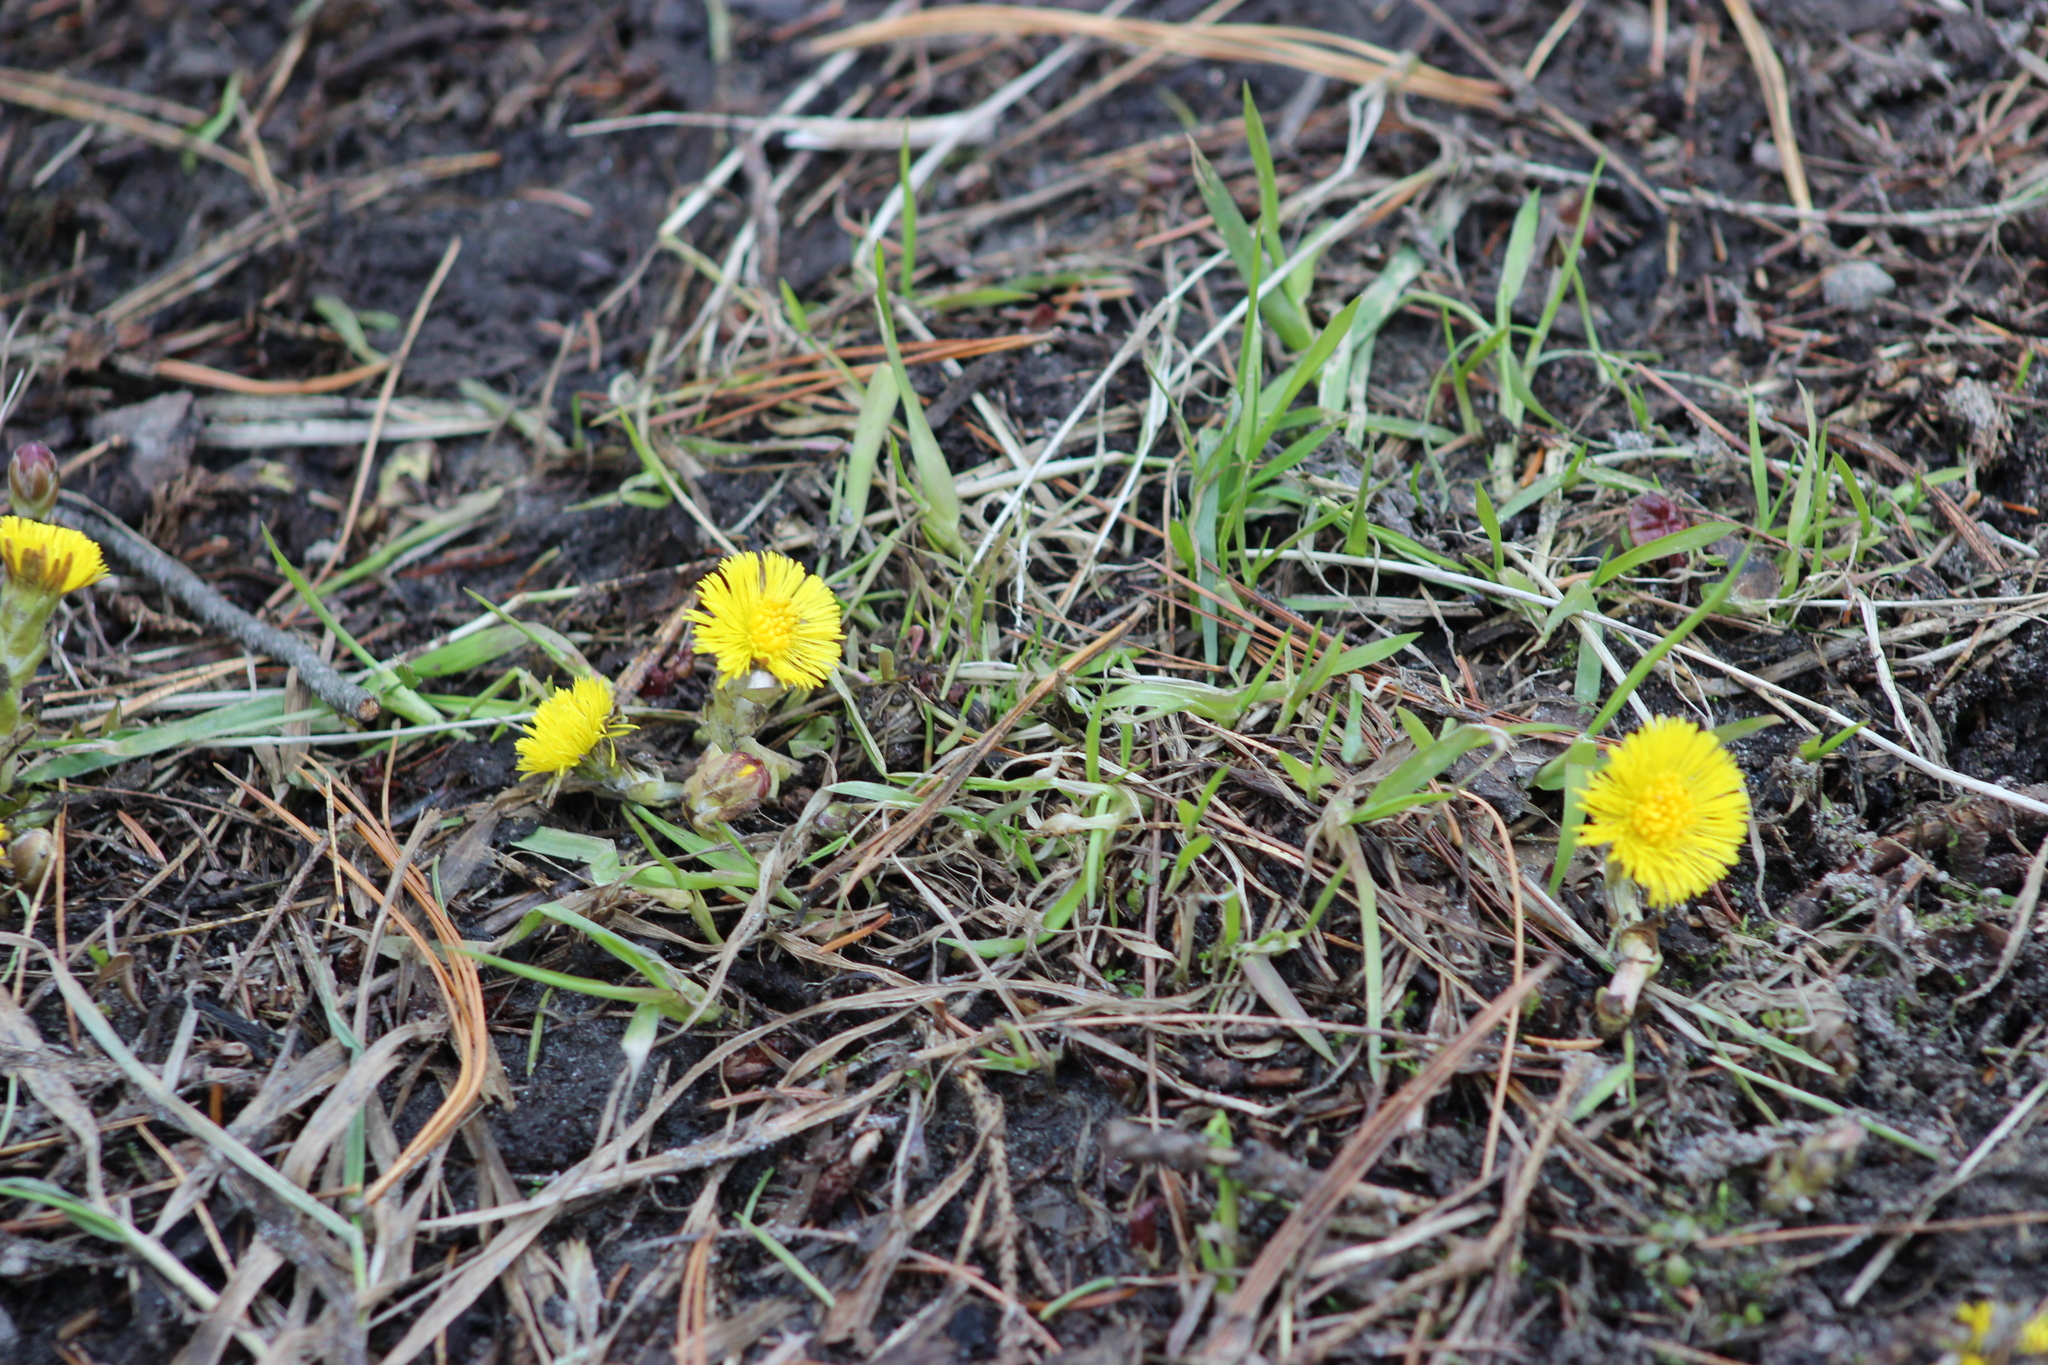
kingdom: Plantae
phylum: Tracheophyta
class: Magnoliopsida
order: Asterales
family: Asteraceae
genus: Tussilago
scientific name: Tussilago farfara
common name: Coltsfoot
